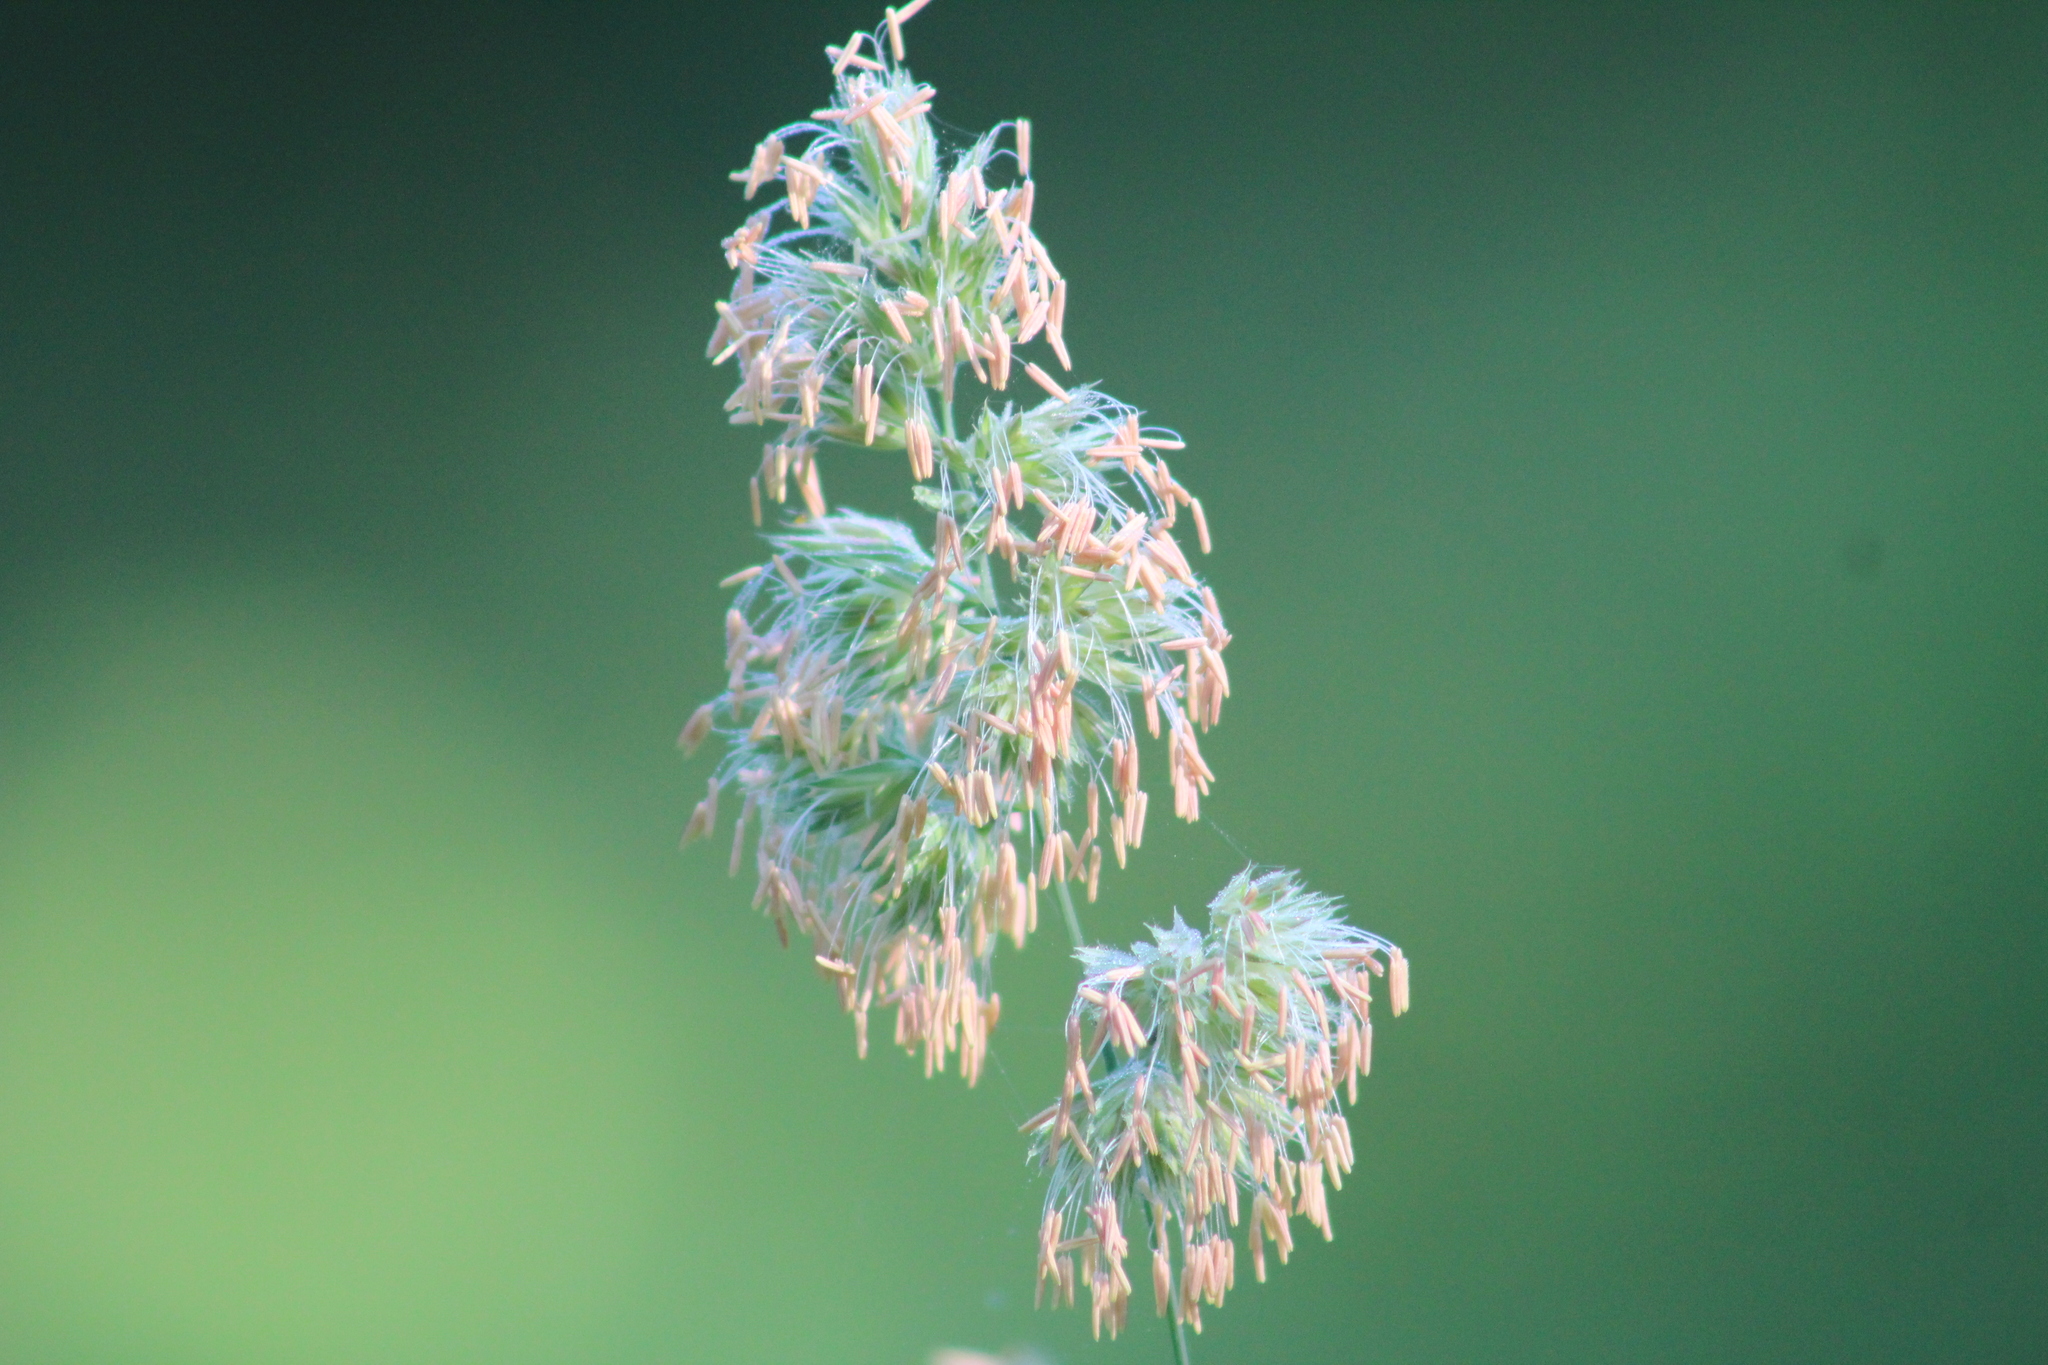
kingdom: Plantae
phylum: Tracheophyta
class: Liliopsida
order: Poales
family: Poaceae
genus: Dactylis
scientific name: Dactylis glomerata
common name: Orchardgrass
